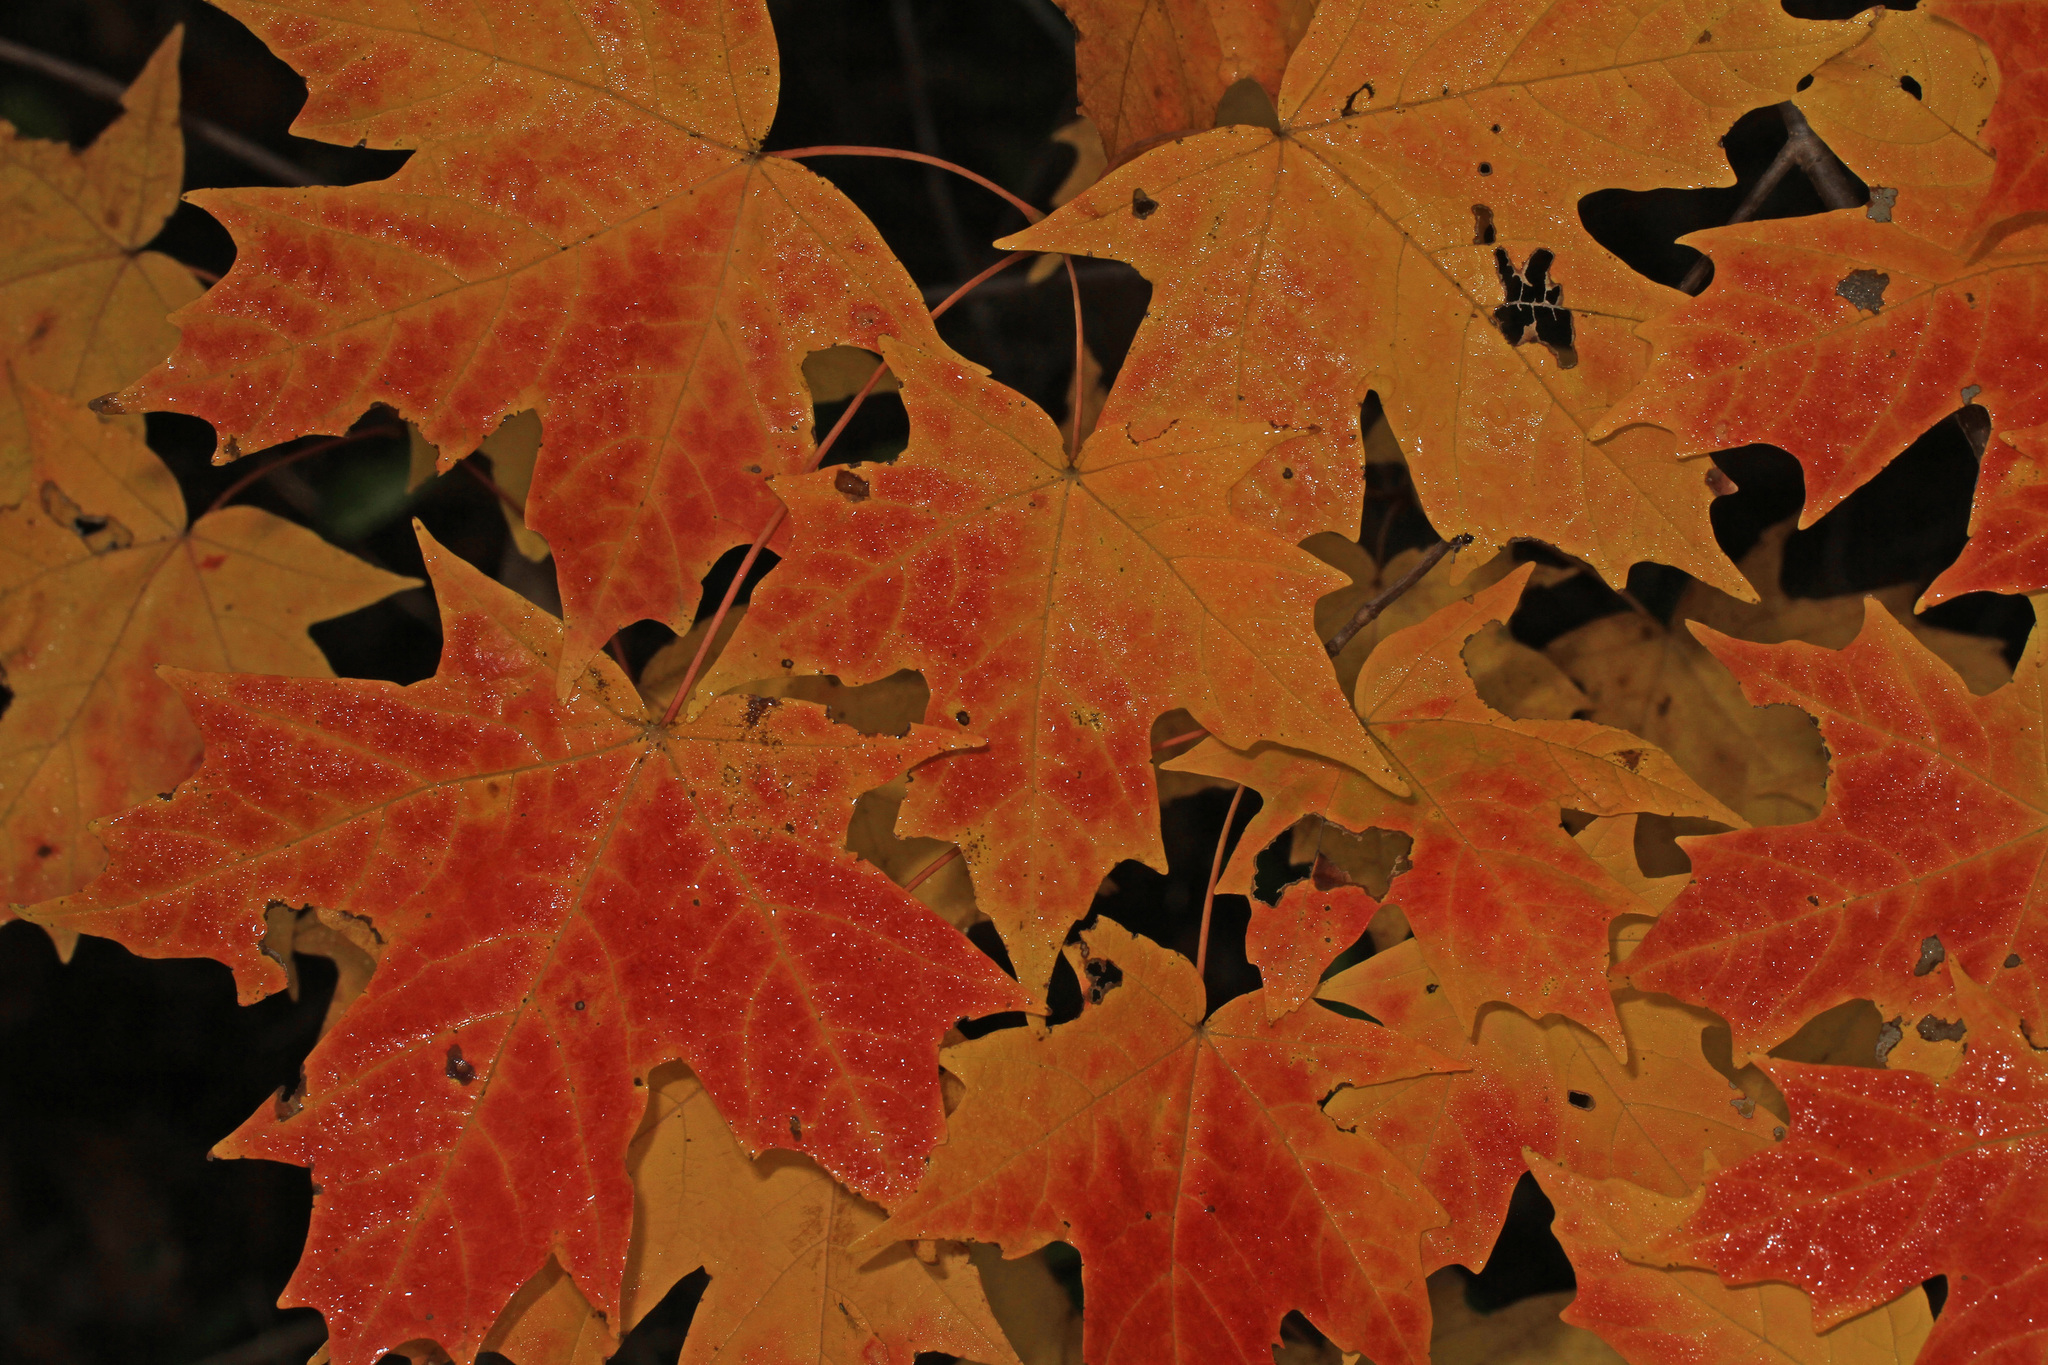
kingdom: Plantae
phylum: Tracheophyta
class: Magnoliopsida
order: Sapindales
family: Sapindaceae
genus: Acer
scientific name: Acer saccharum
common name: Sugar maple
